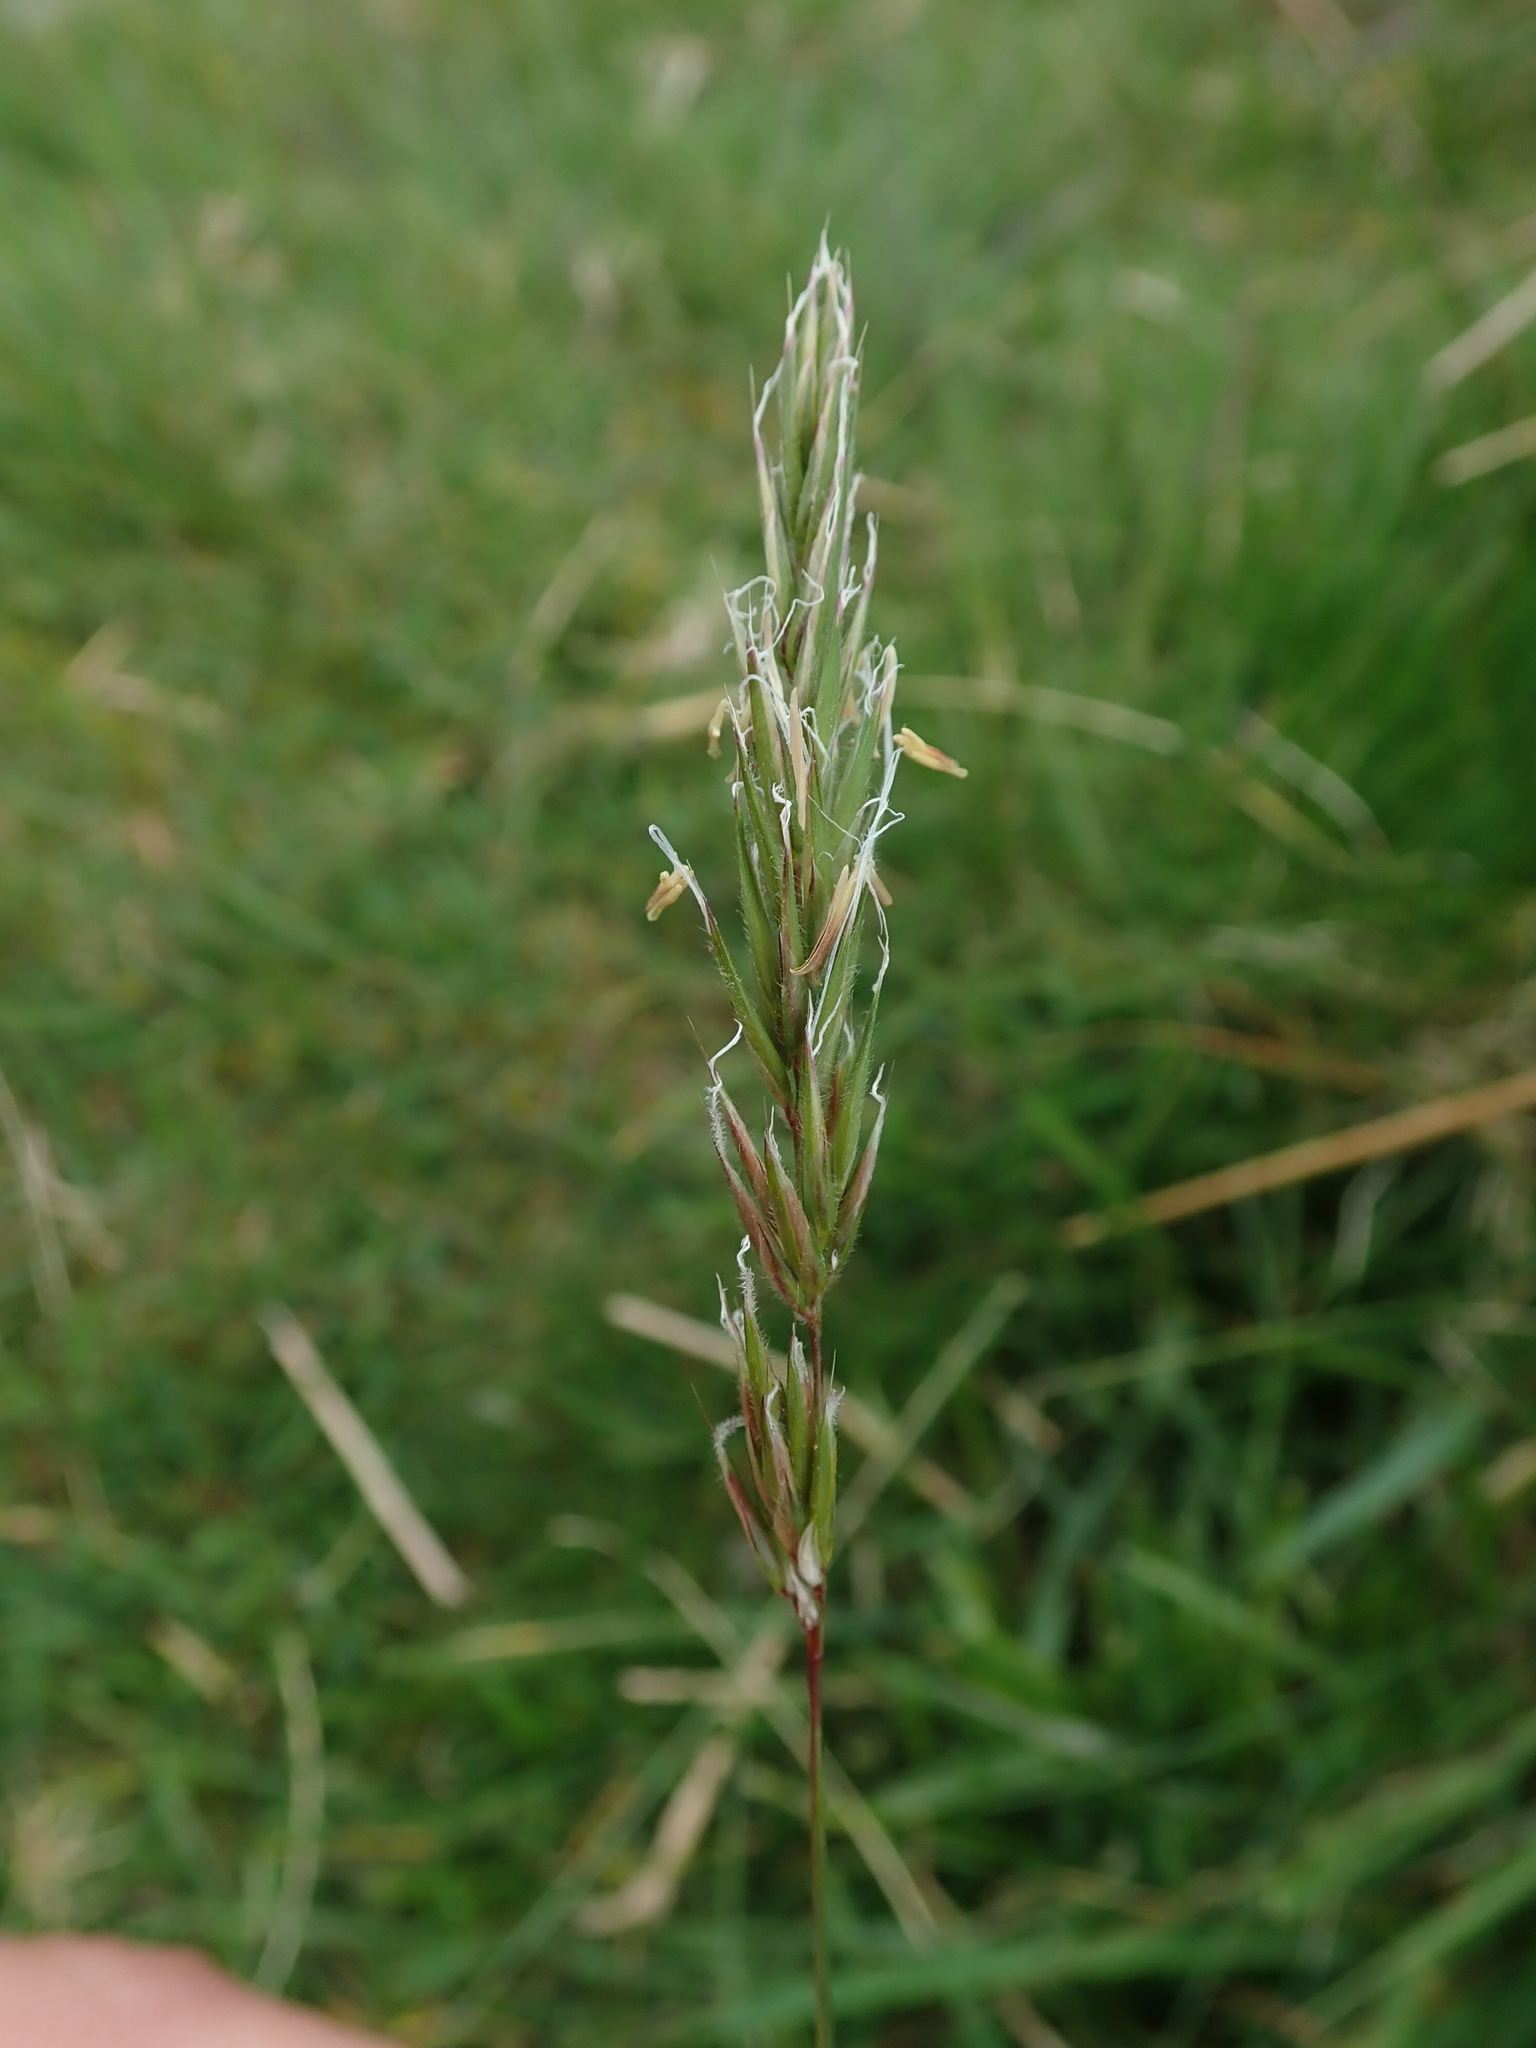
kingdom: Plantae
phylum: Tracheophyta
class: Liliopsida
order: Poales
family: Poaceae
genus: Anthoxanthum
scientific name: Anthoxanthum odoratum
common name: Sweet vernalgrass
